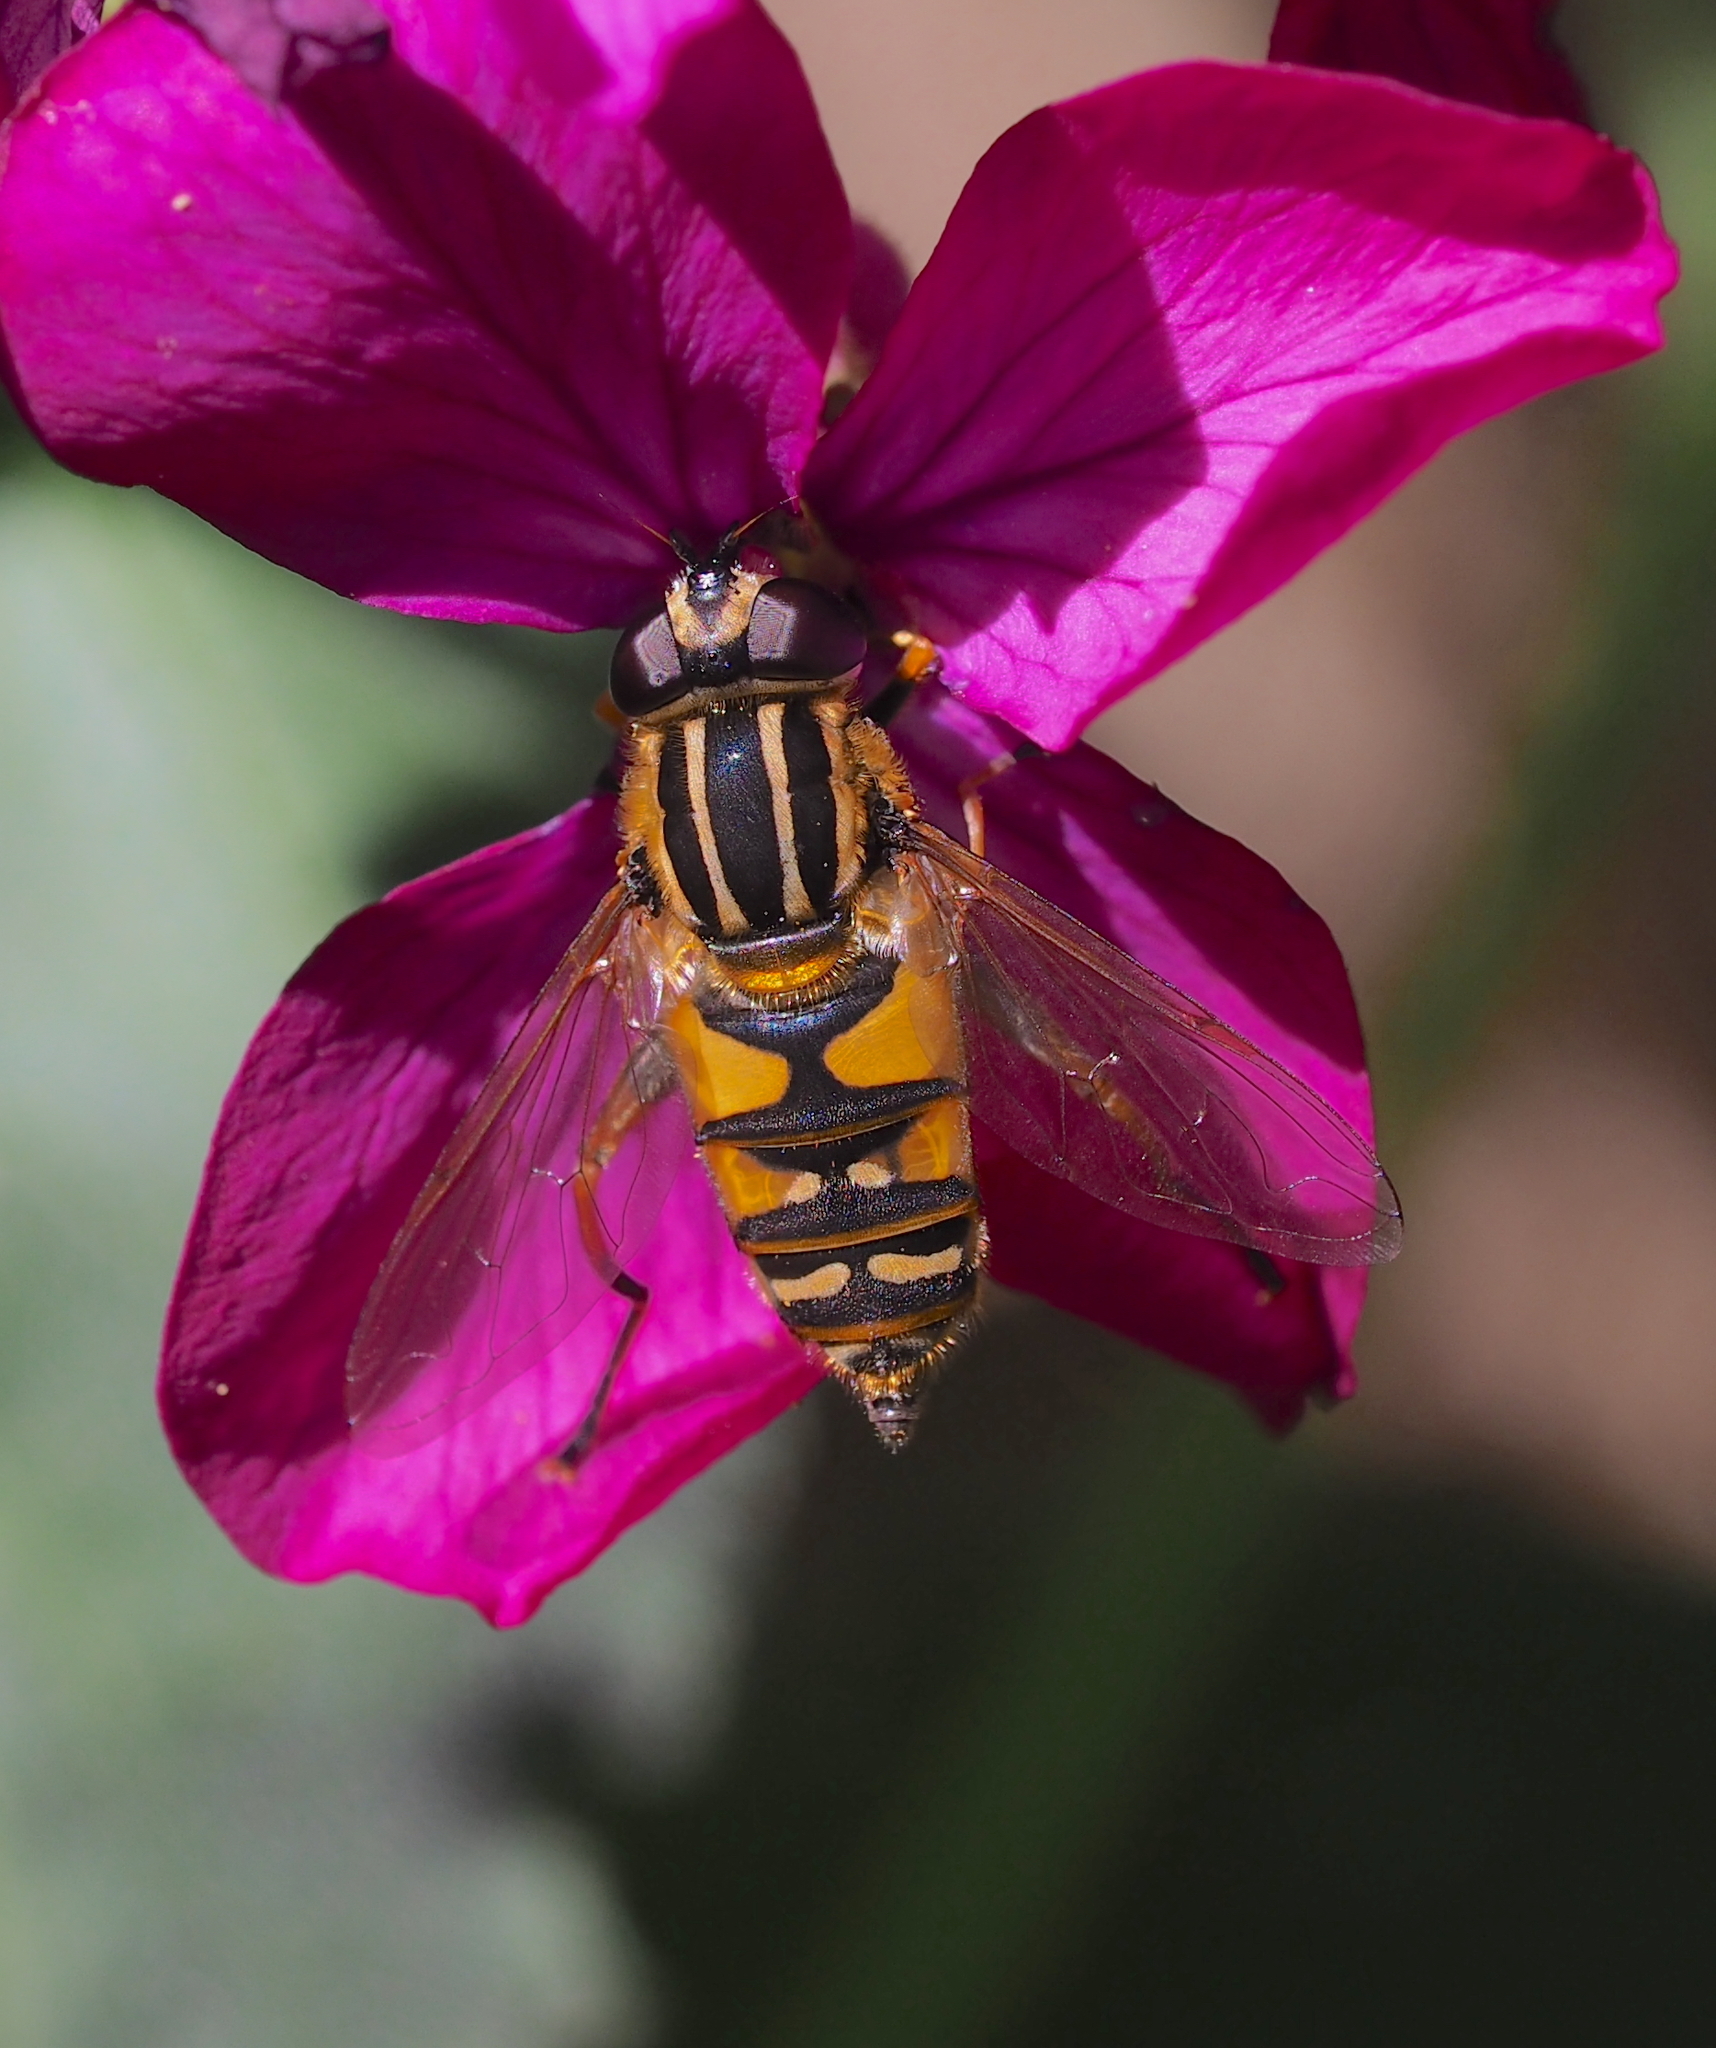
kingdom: Animalia
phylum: Arthropoda
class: Insecta
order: Diptera
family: Syrphidae
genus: Helophilus
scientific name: Helophilus pendulus
